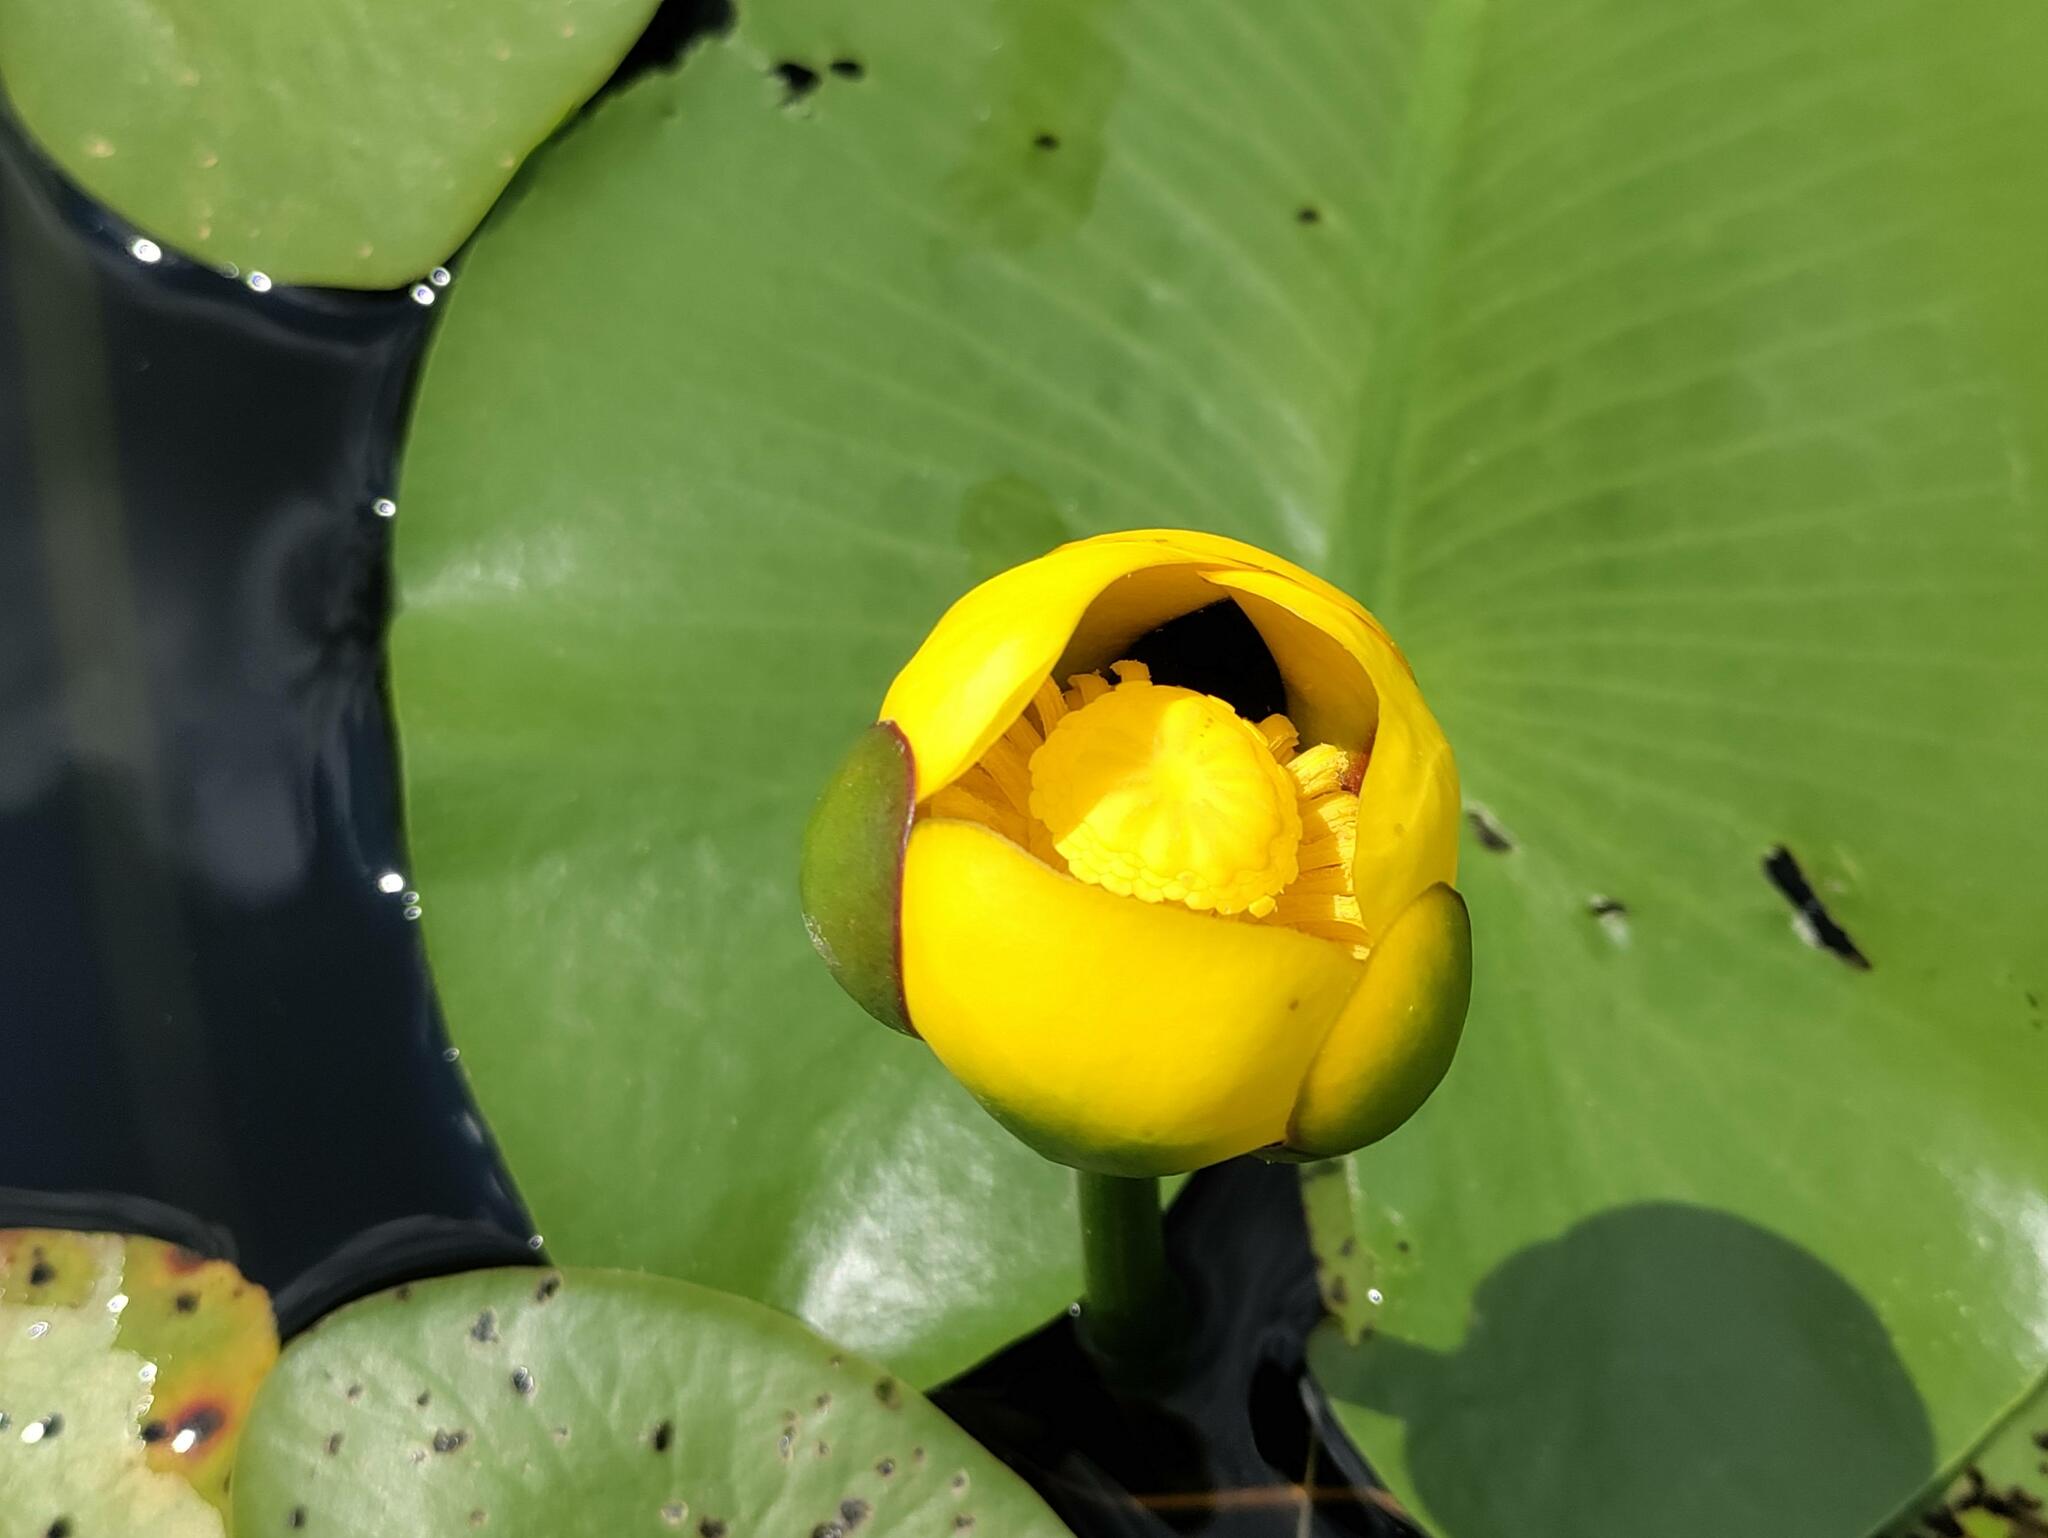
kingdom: Plantae
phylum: Tracheophyta
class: Magnoliopsida
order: Nymphaeales
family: Nymphaeaceae
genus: Nuphar
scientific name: Nuphar variegata
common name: Beaver-root
